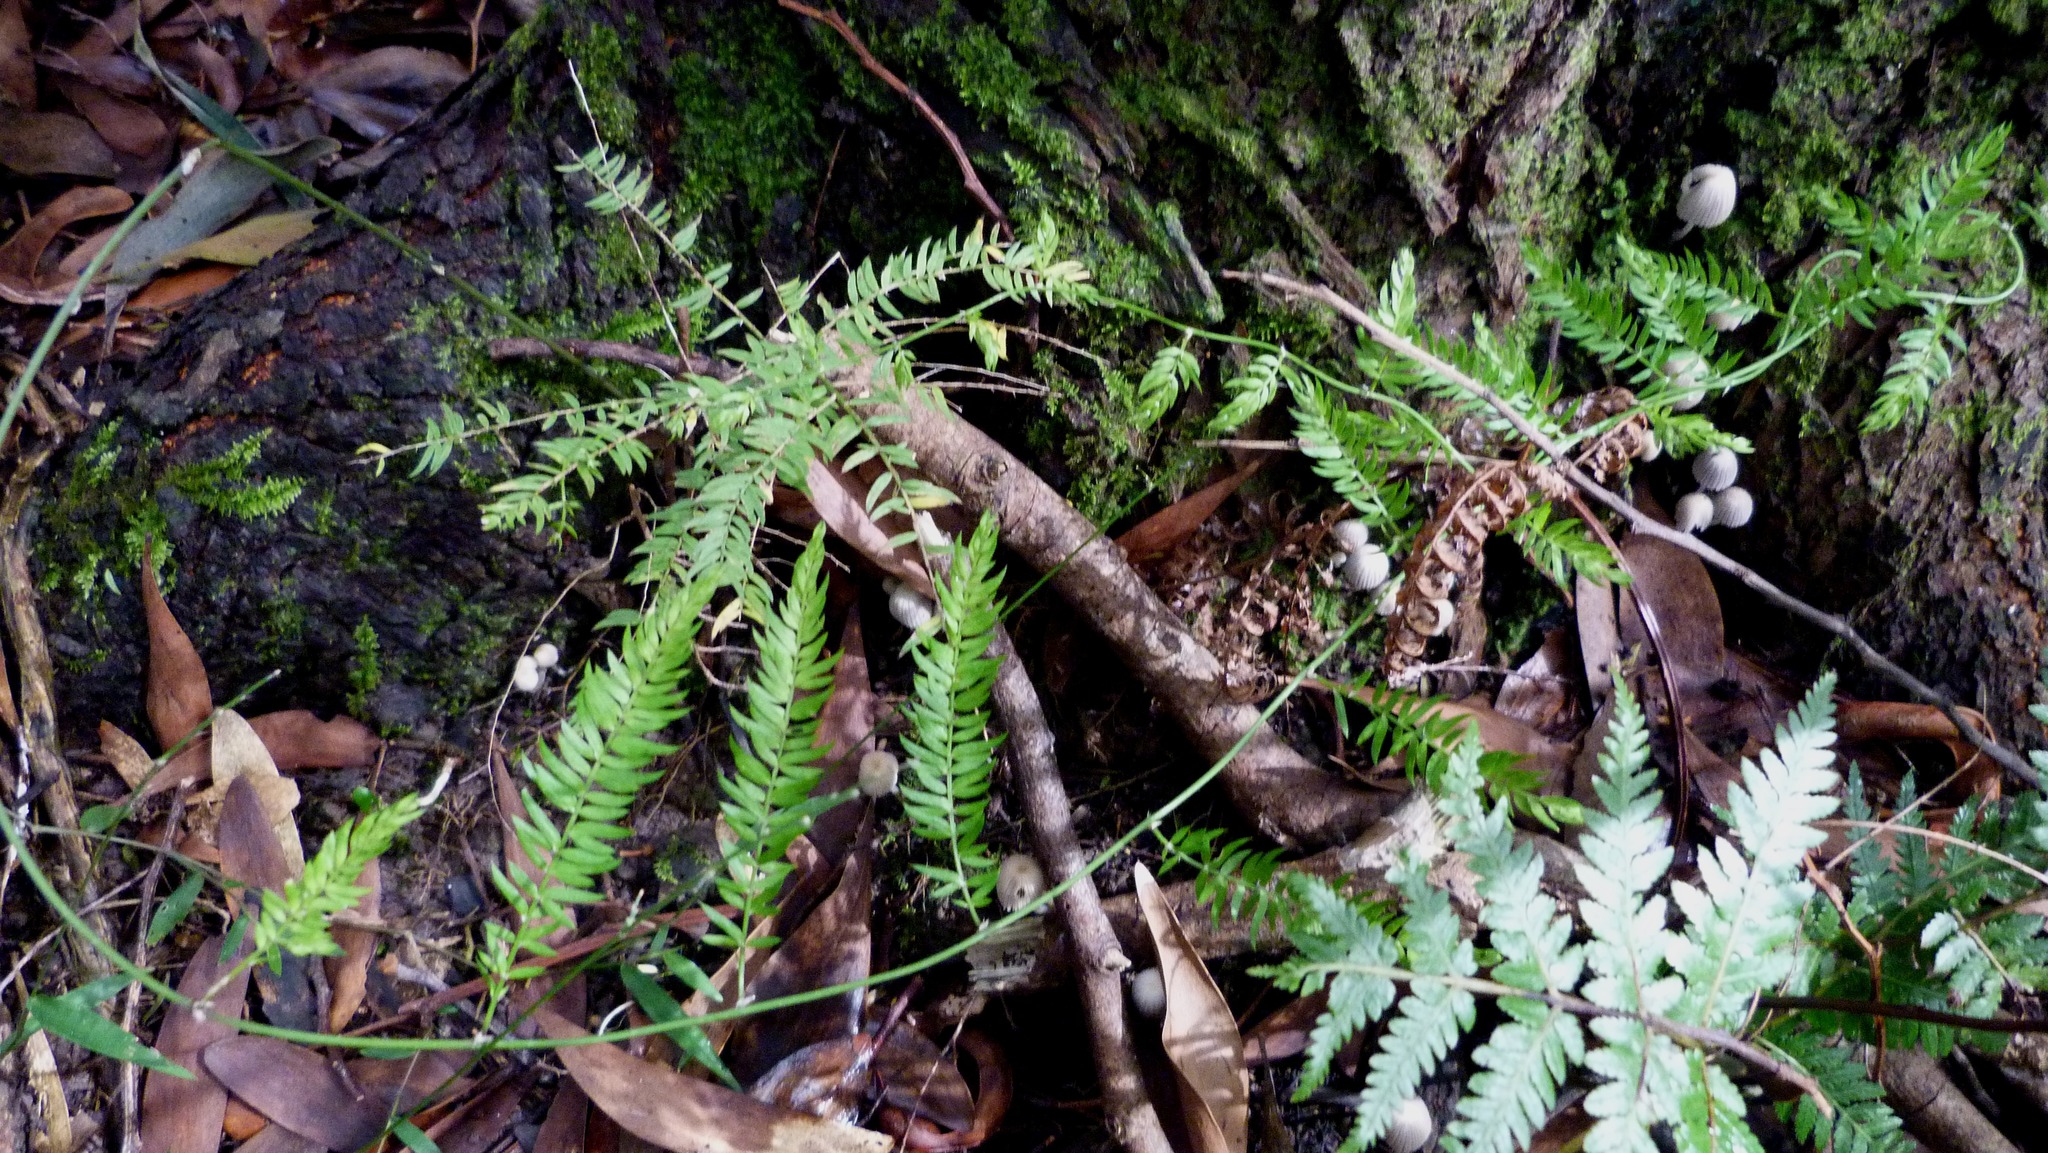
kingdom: Plantae
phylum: Tracheophyta
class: Liliopsida
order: Asparagales
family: Asparagaceae
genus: Asparagus
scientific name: Asparagus scandens
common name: Asparagus-fern
